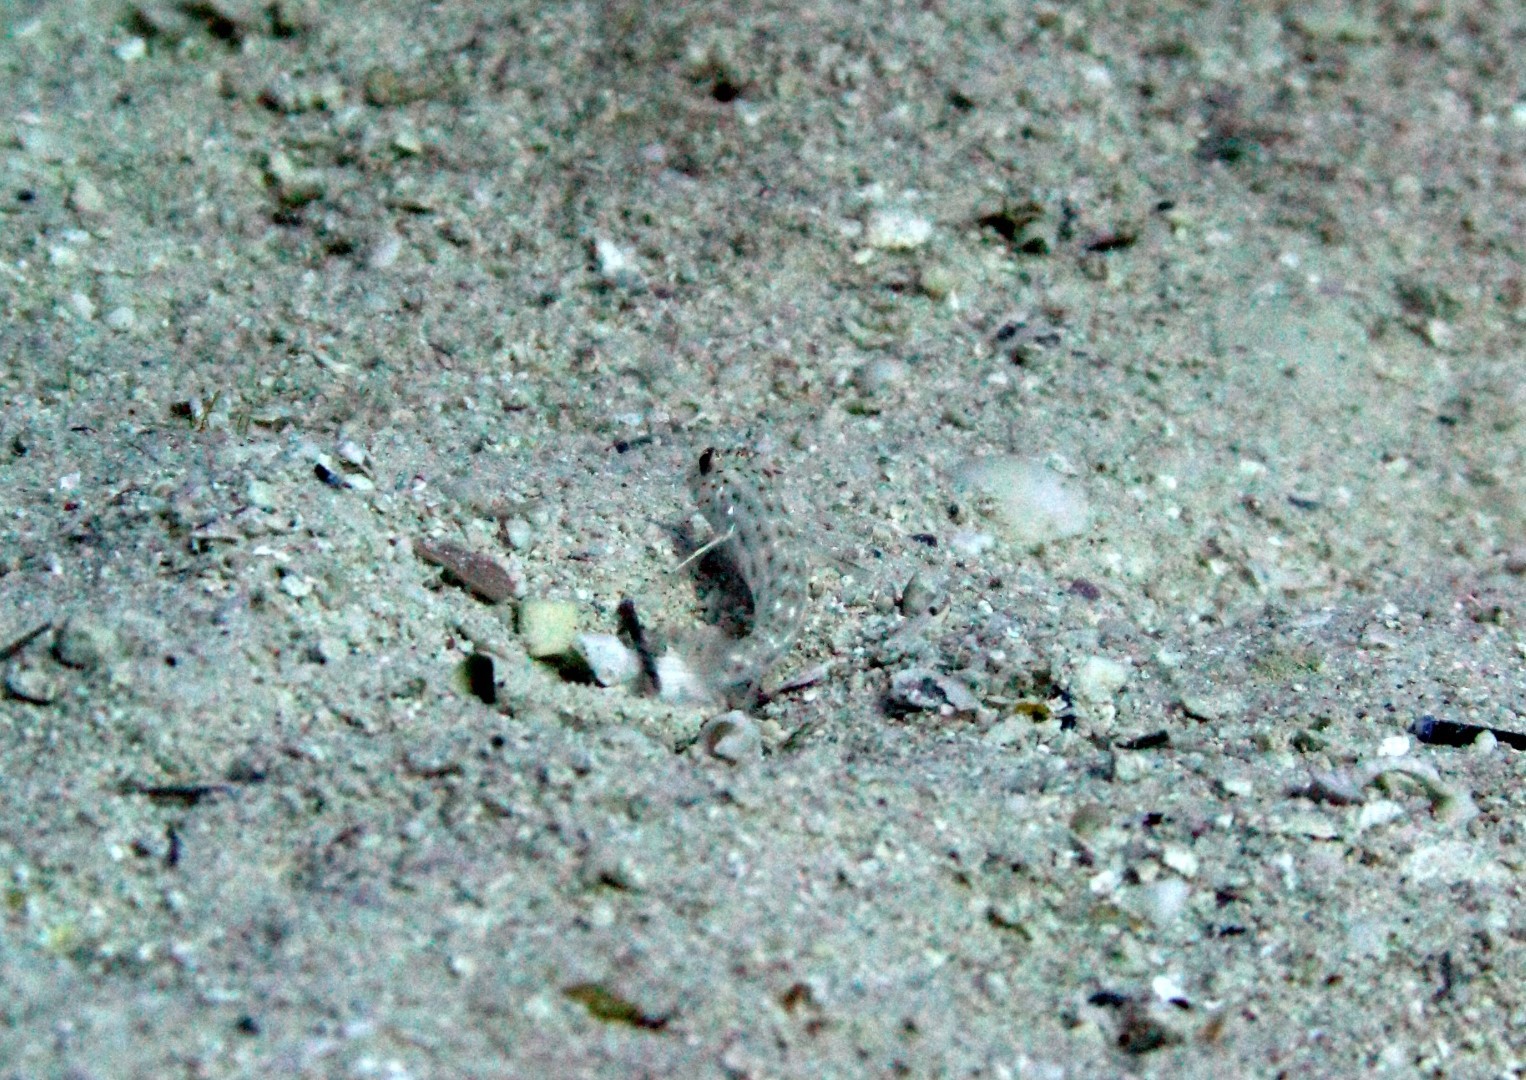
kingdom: Animalia
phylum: Chordata
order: Perciformes
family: Gobiidae
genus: Ctenogobiops
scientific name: Ctenogobiops crocineus
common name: Silverspot shrimpgoby
